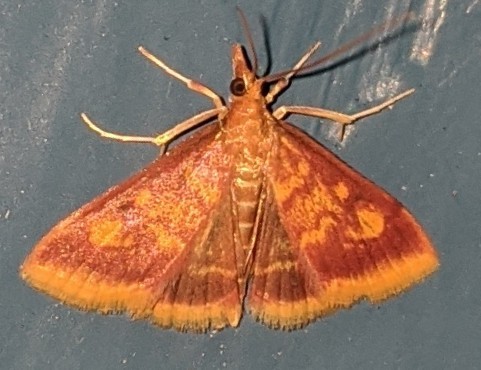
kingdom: Animalia
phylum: Arthropoda
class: Insecta
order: Lepidoptera
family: Crambidae
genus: Pyrausta
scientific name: Pyrausta acrionalis
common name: Mint-loving pyrausta moth
